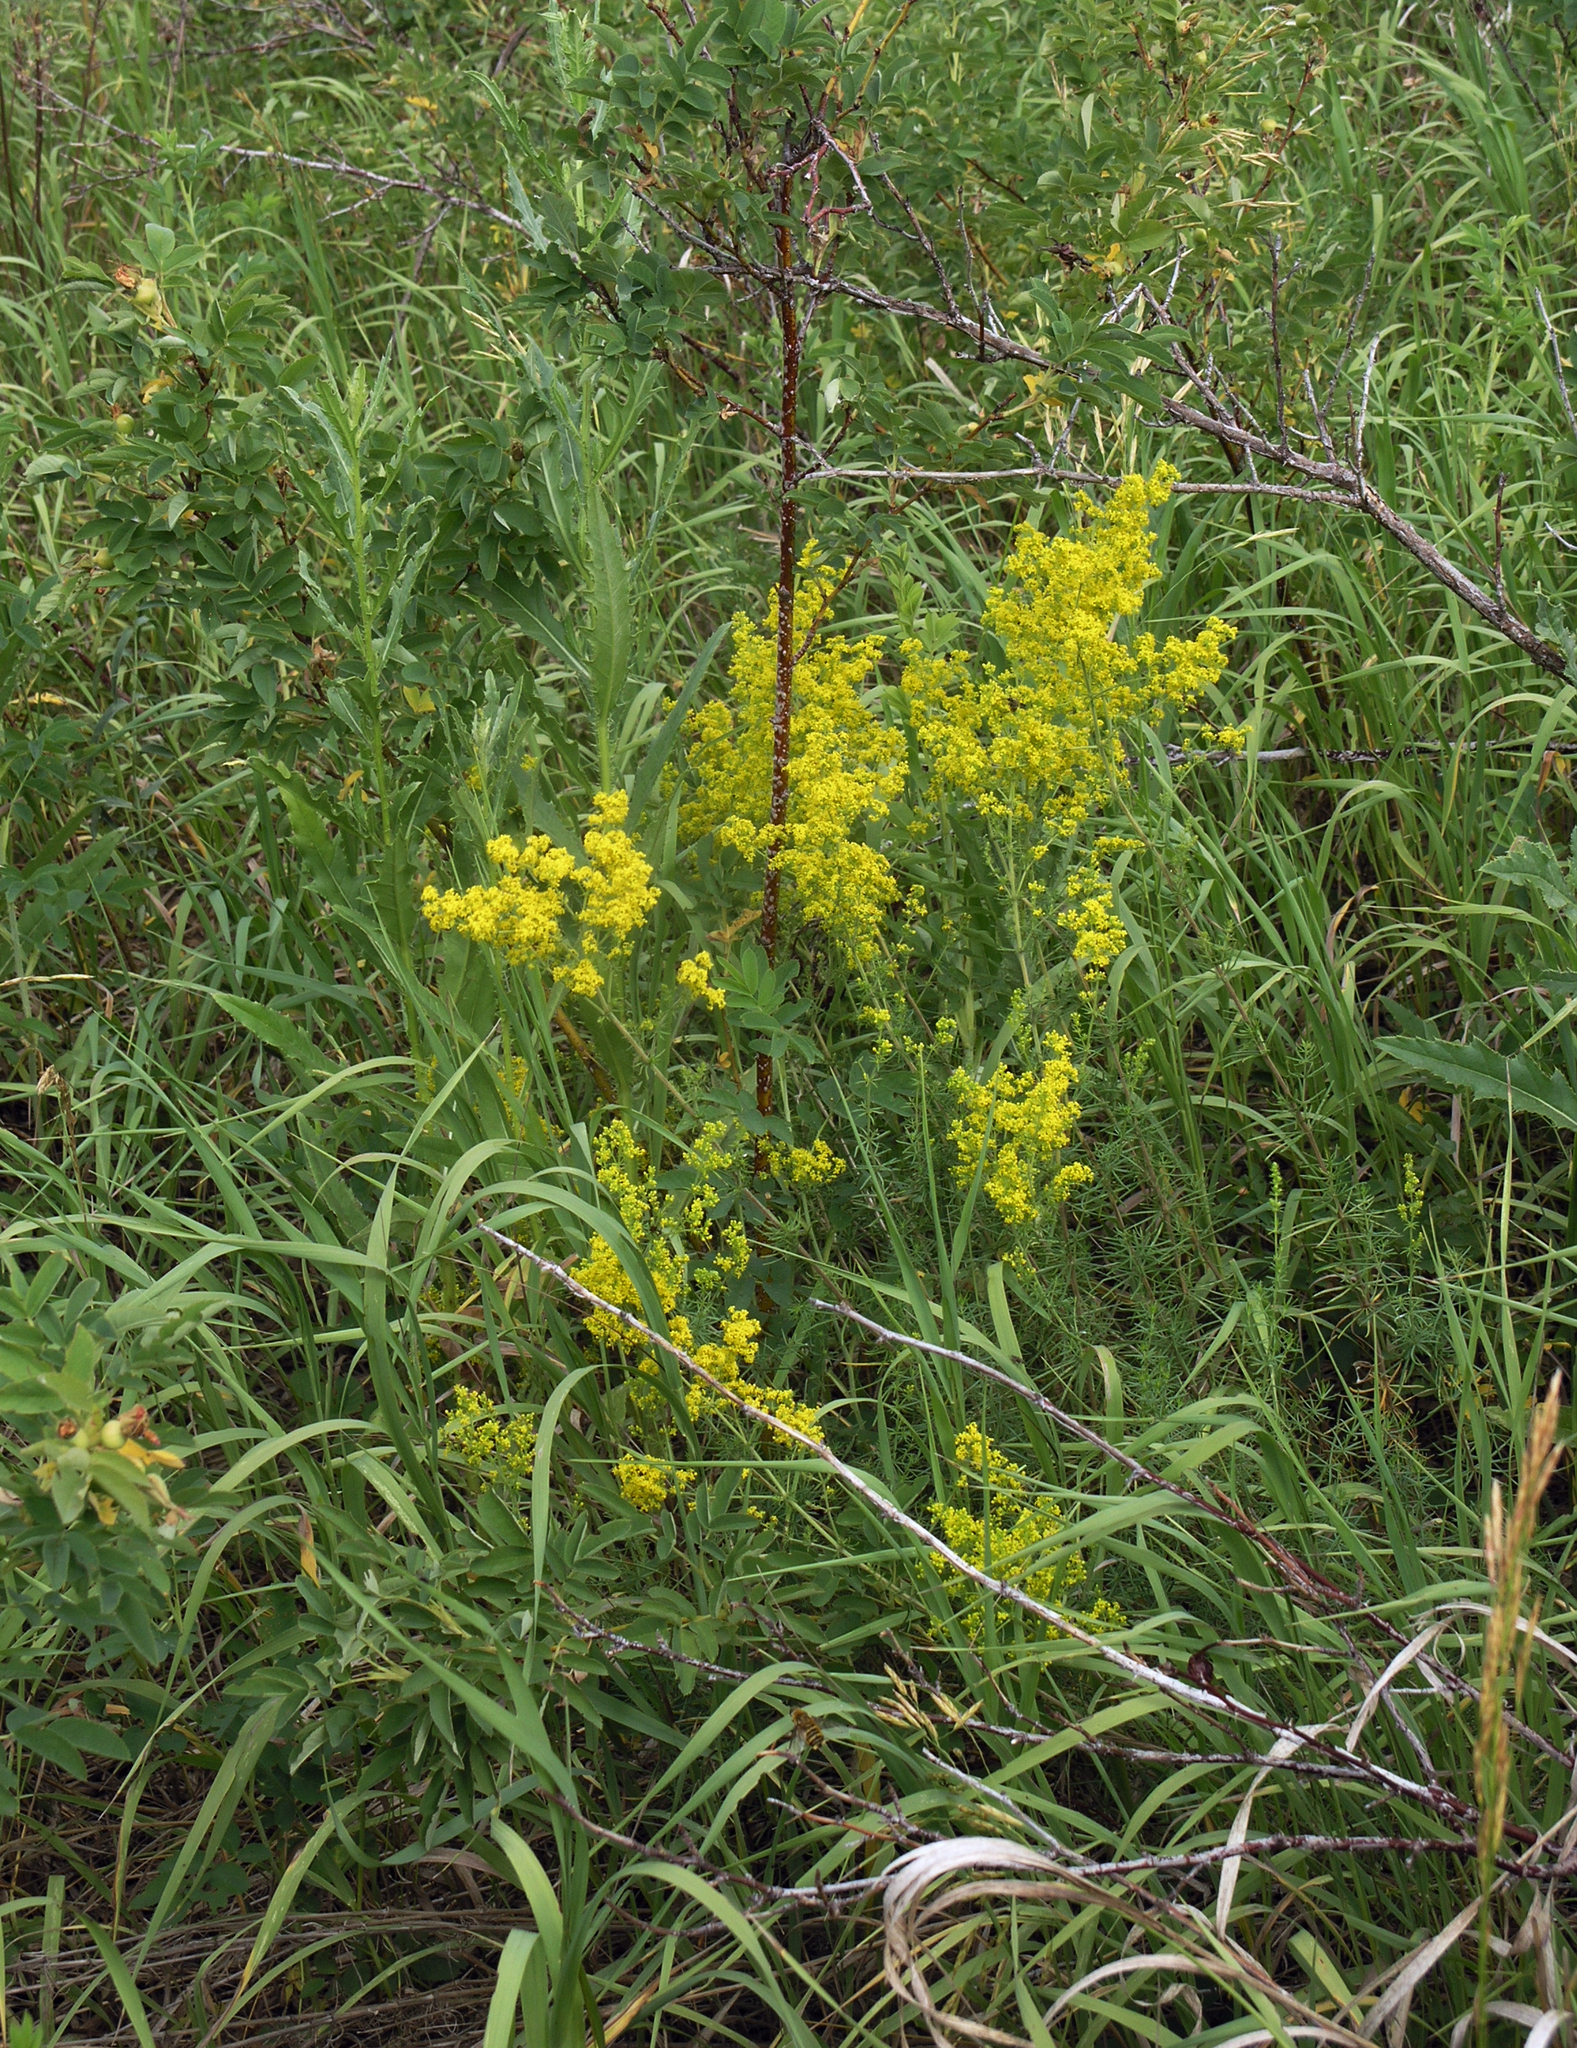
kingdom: Plantae
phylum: Tracheophyta
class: Magnoliopsida
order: Gentianales
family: Rubiaceae
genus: Galium
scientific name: Galium verum
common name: Lady's bedstraw
